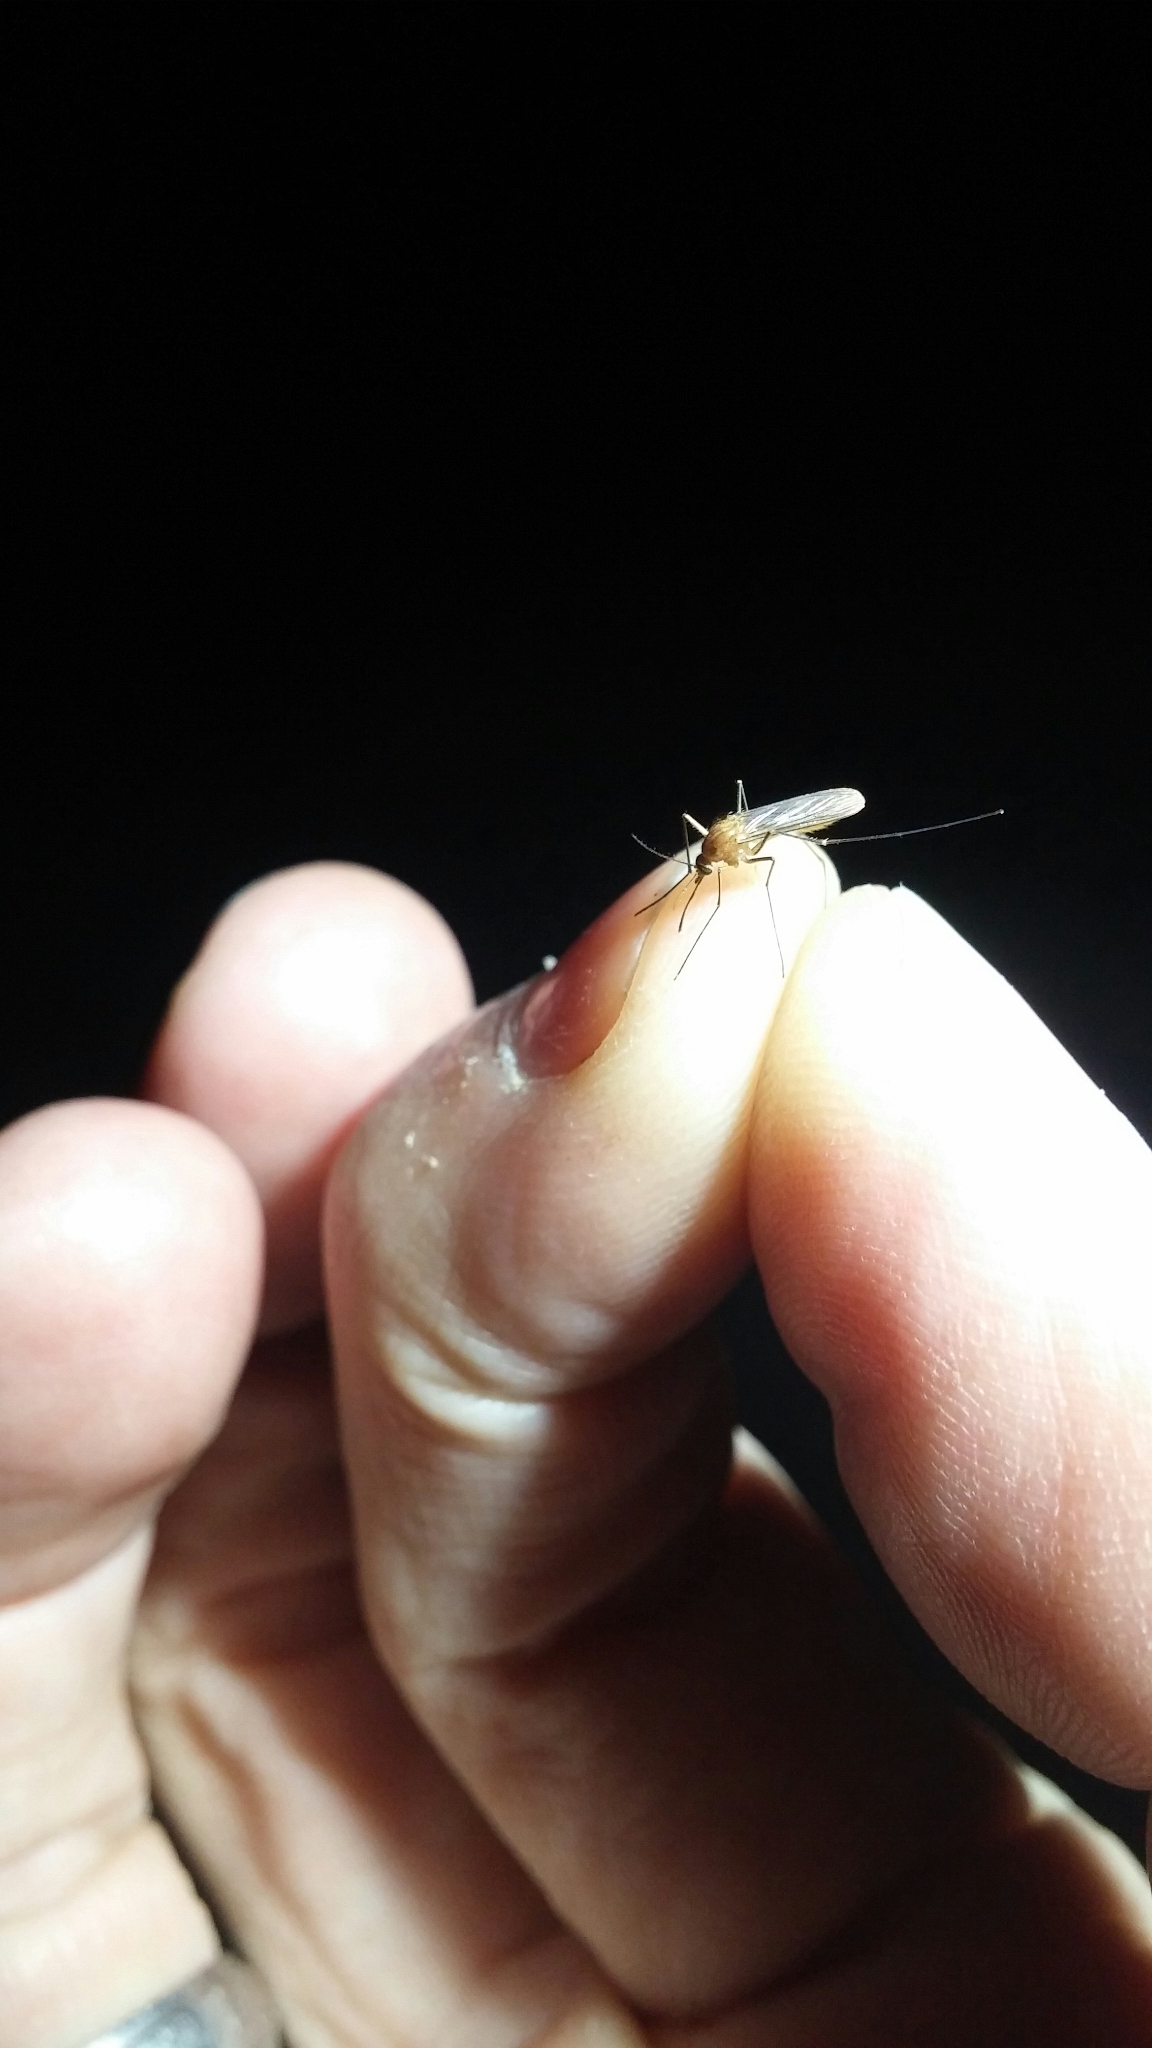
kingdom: Animalia
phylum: Arthropoda
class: Insecta
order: Diptera
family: Culicidae
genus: Culex
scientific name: Culex erythrothorax
